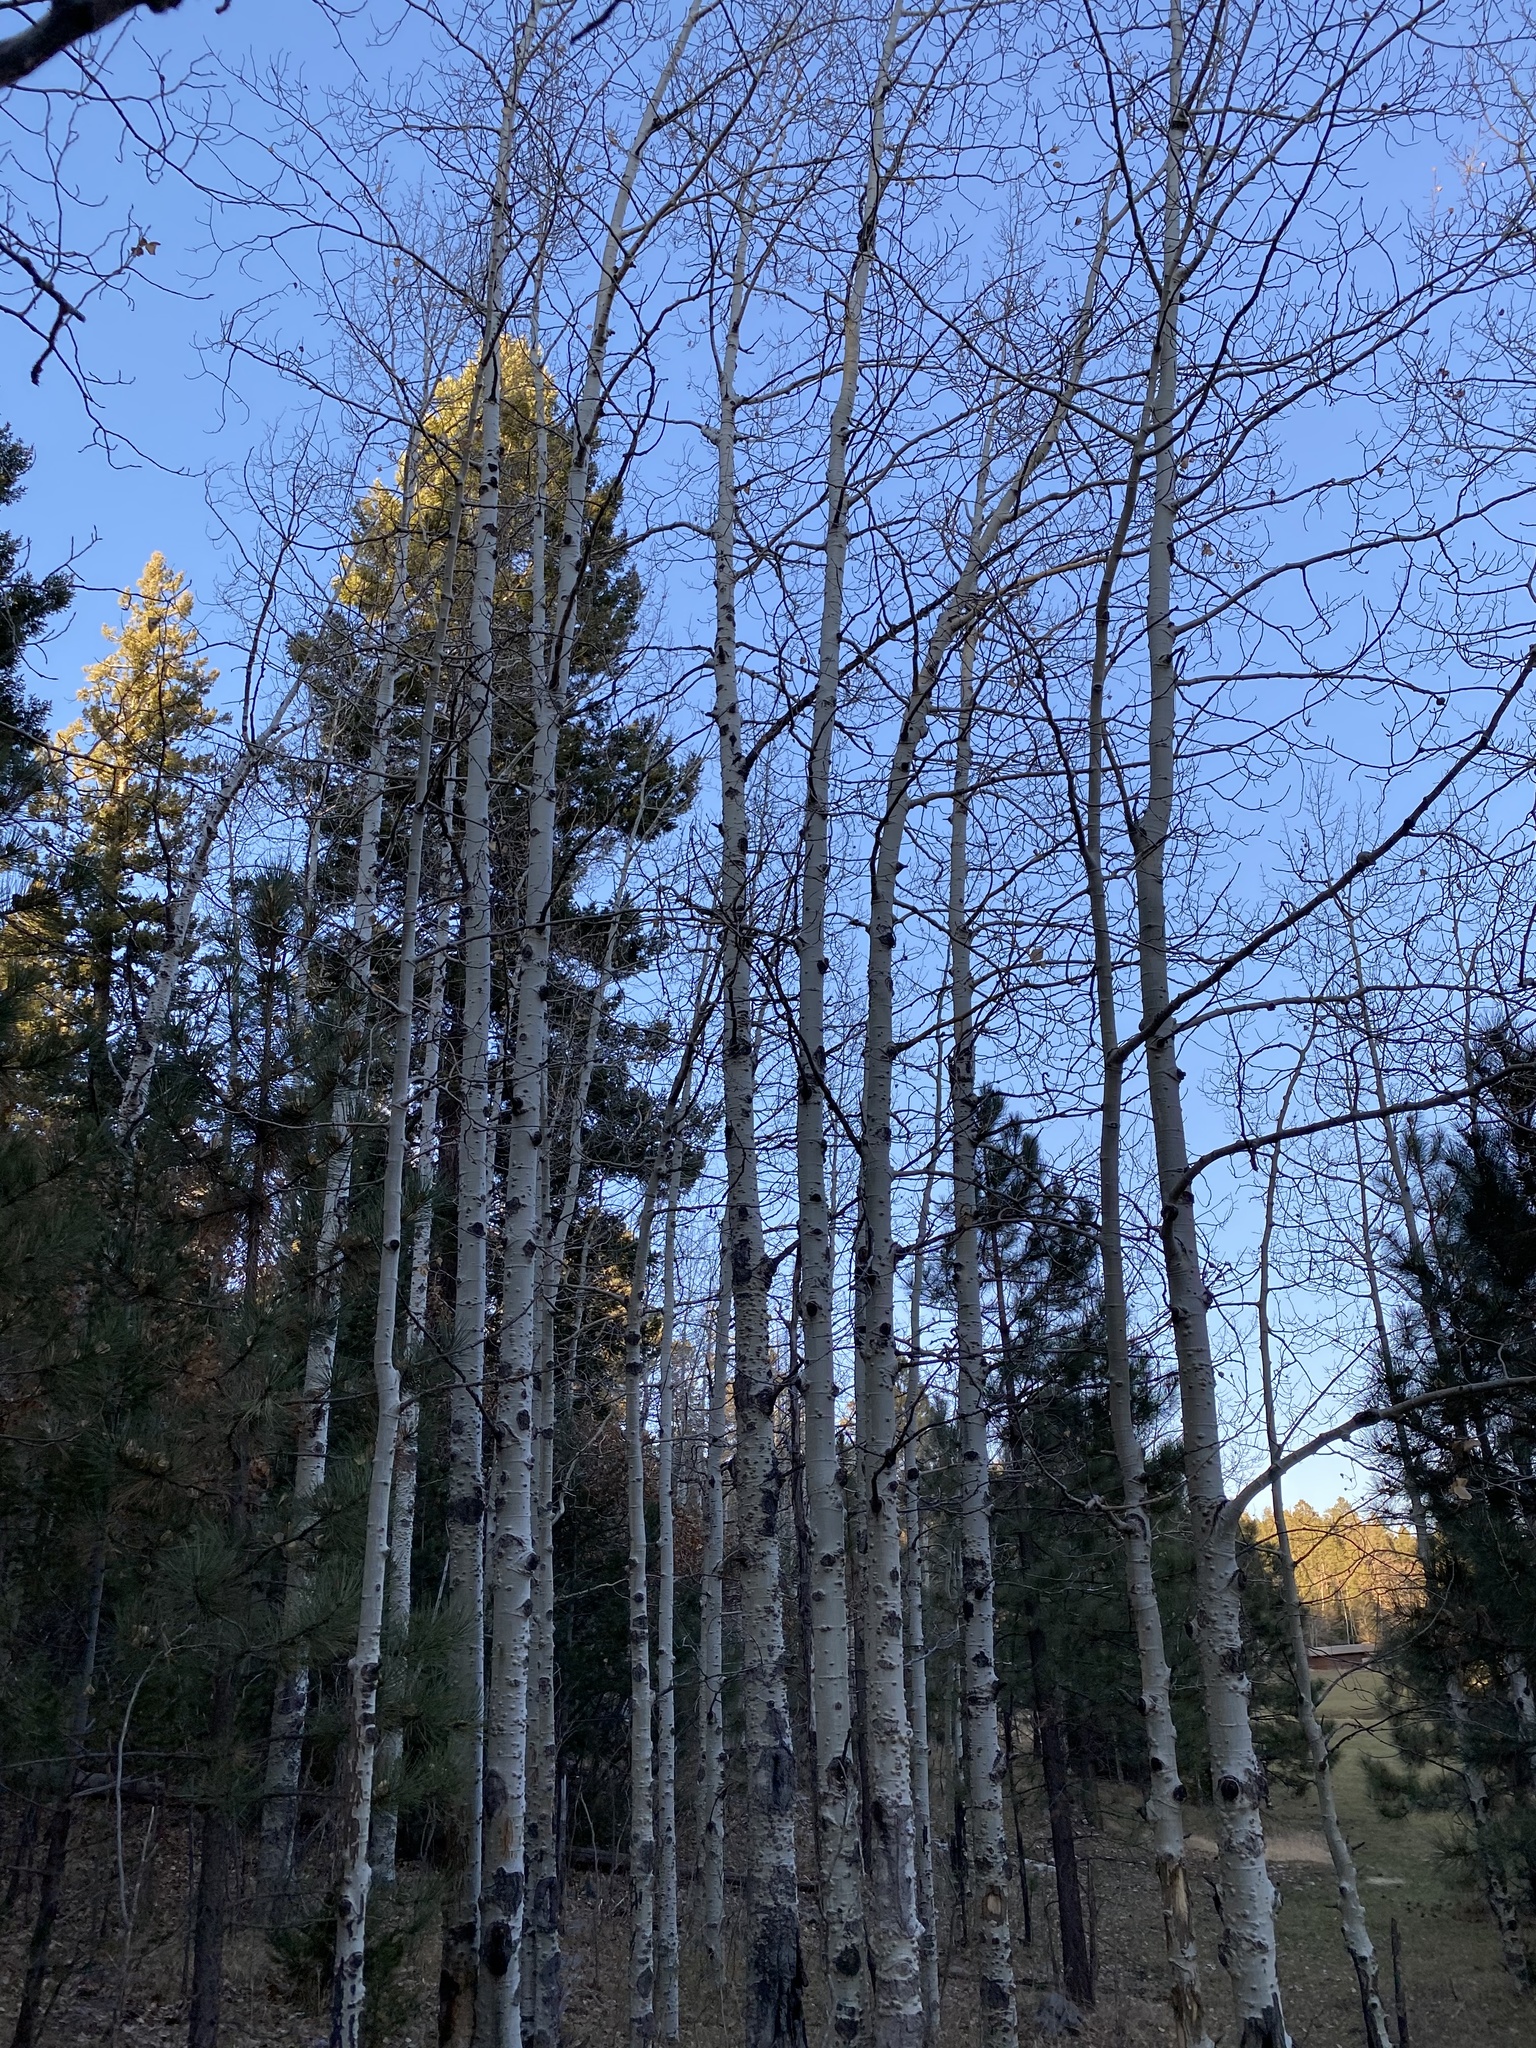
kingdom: Plantae
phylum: Tracheophyta
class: Magnoliopsida
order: Malpighiales
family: Salicaceae
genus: Populus
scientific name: Populus tremuloides
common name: Quaking aspen
